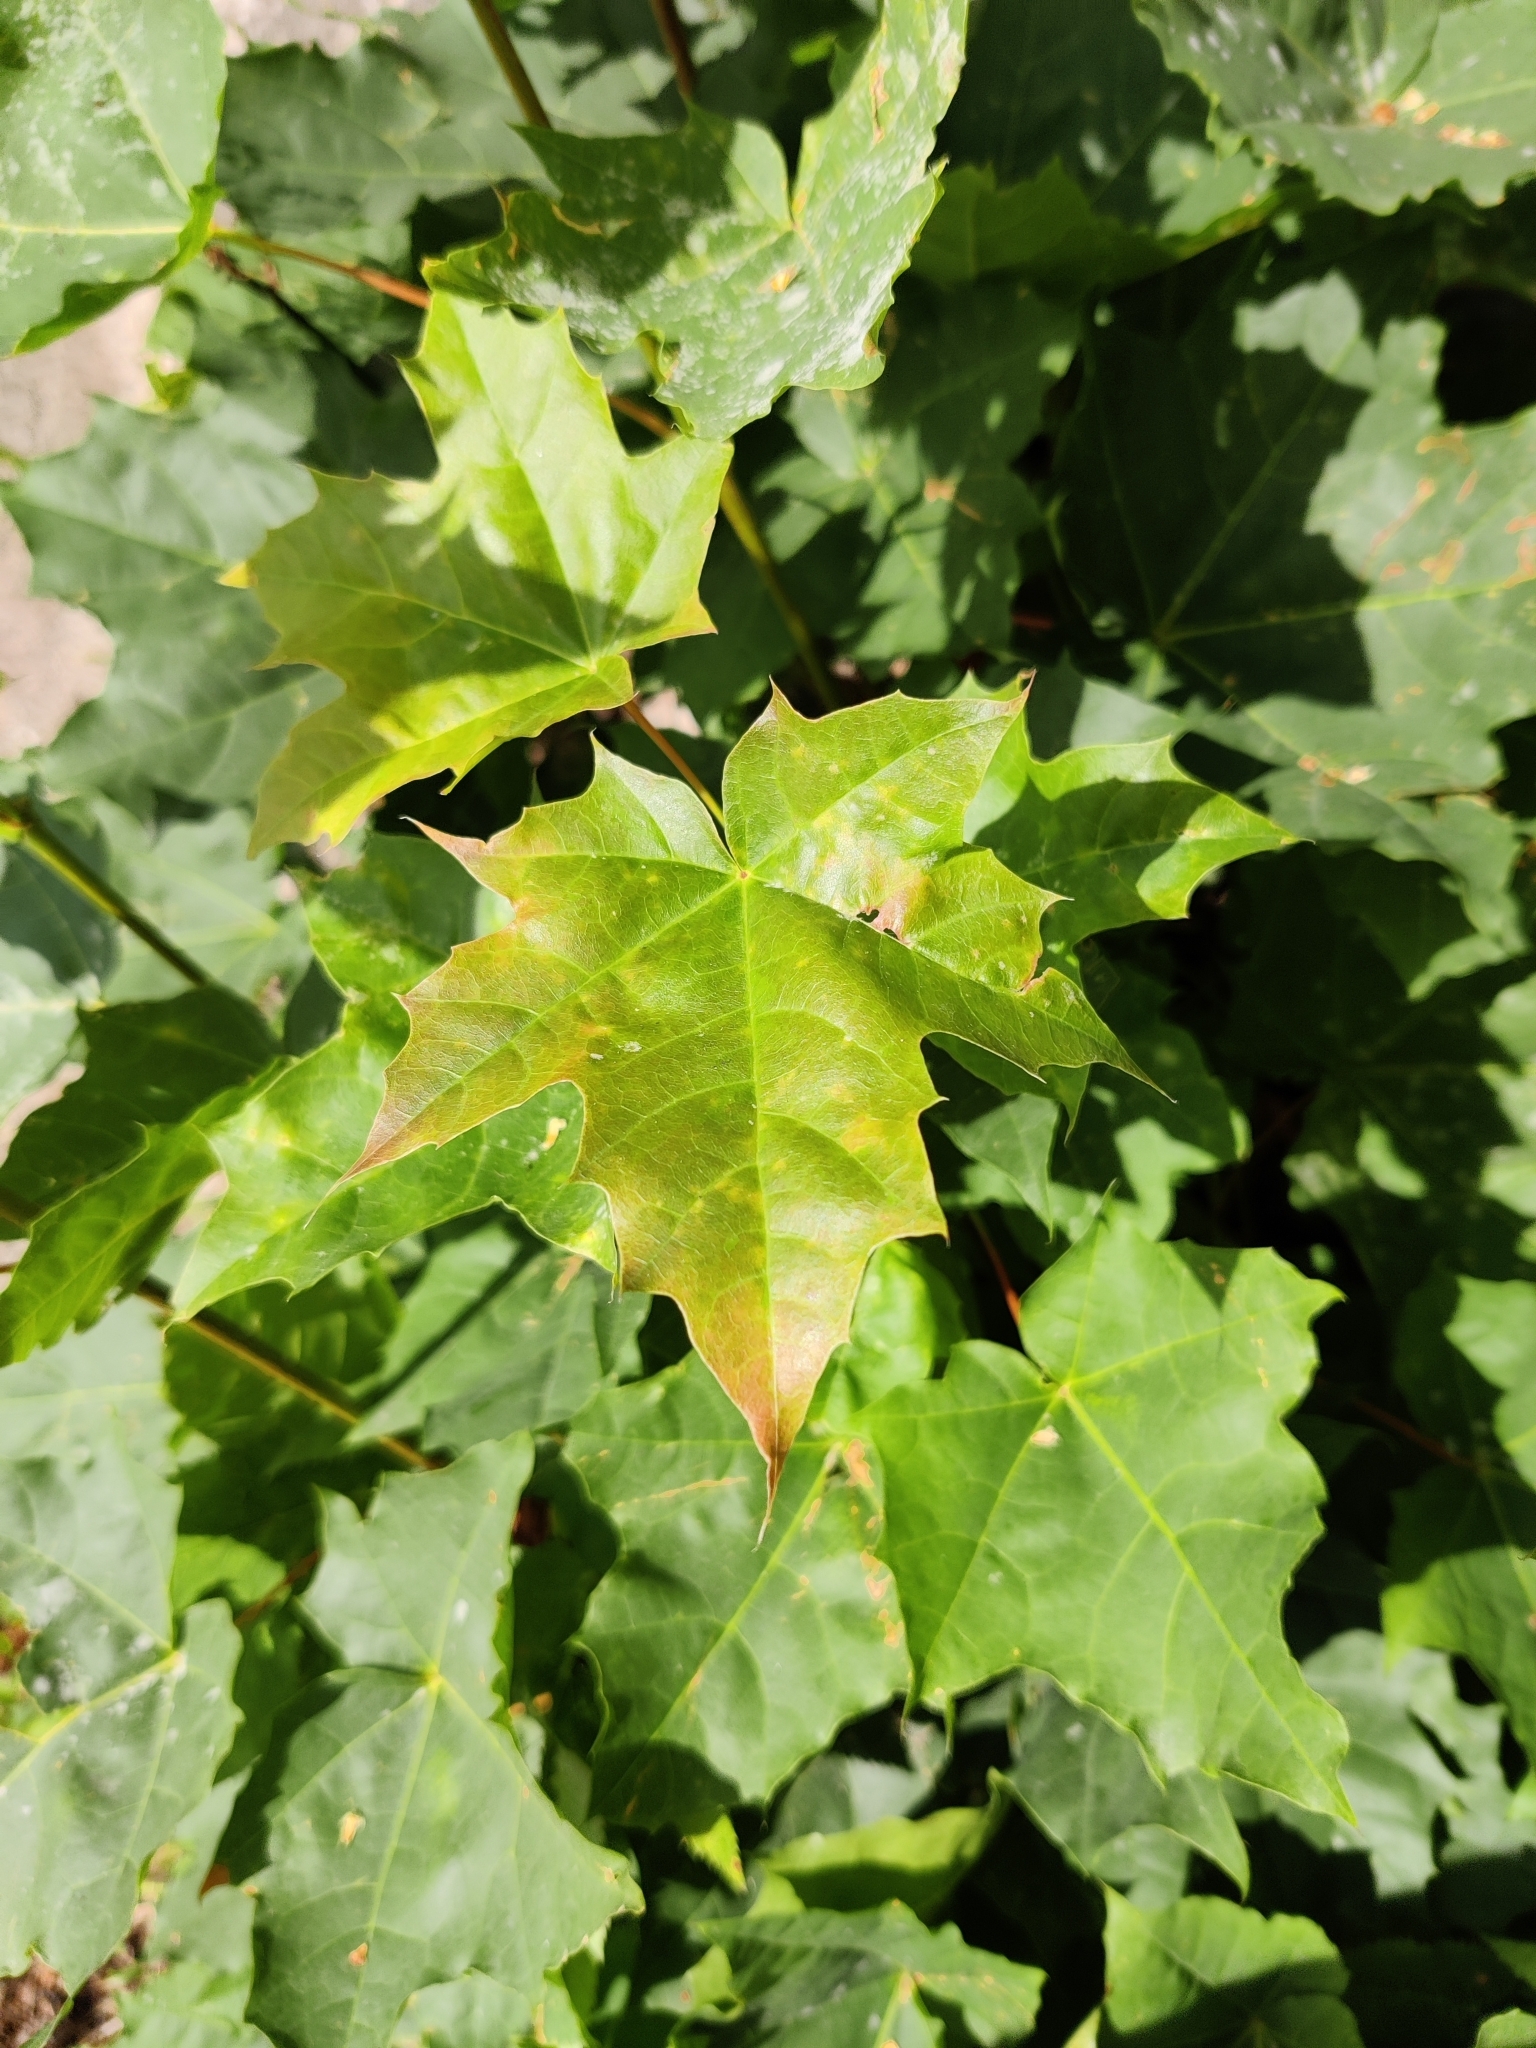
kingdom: Plantae
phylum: Tracheophyta
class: Magnoliopsida
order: Sapindales
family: Sapindaceae
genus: Acer
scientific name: Acer platanoides
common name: Norway maple
